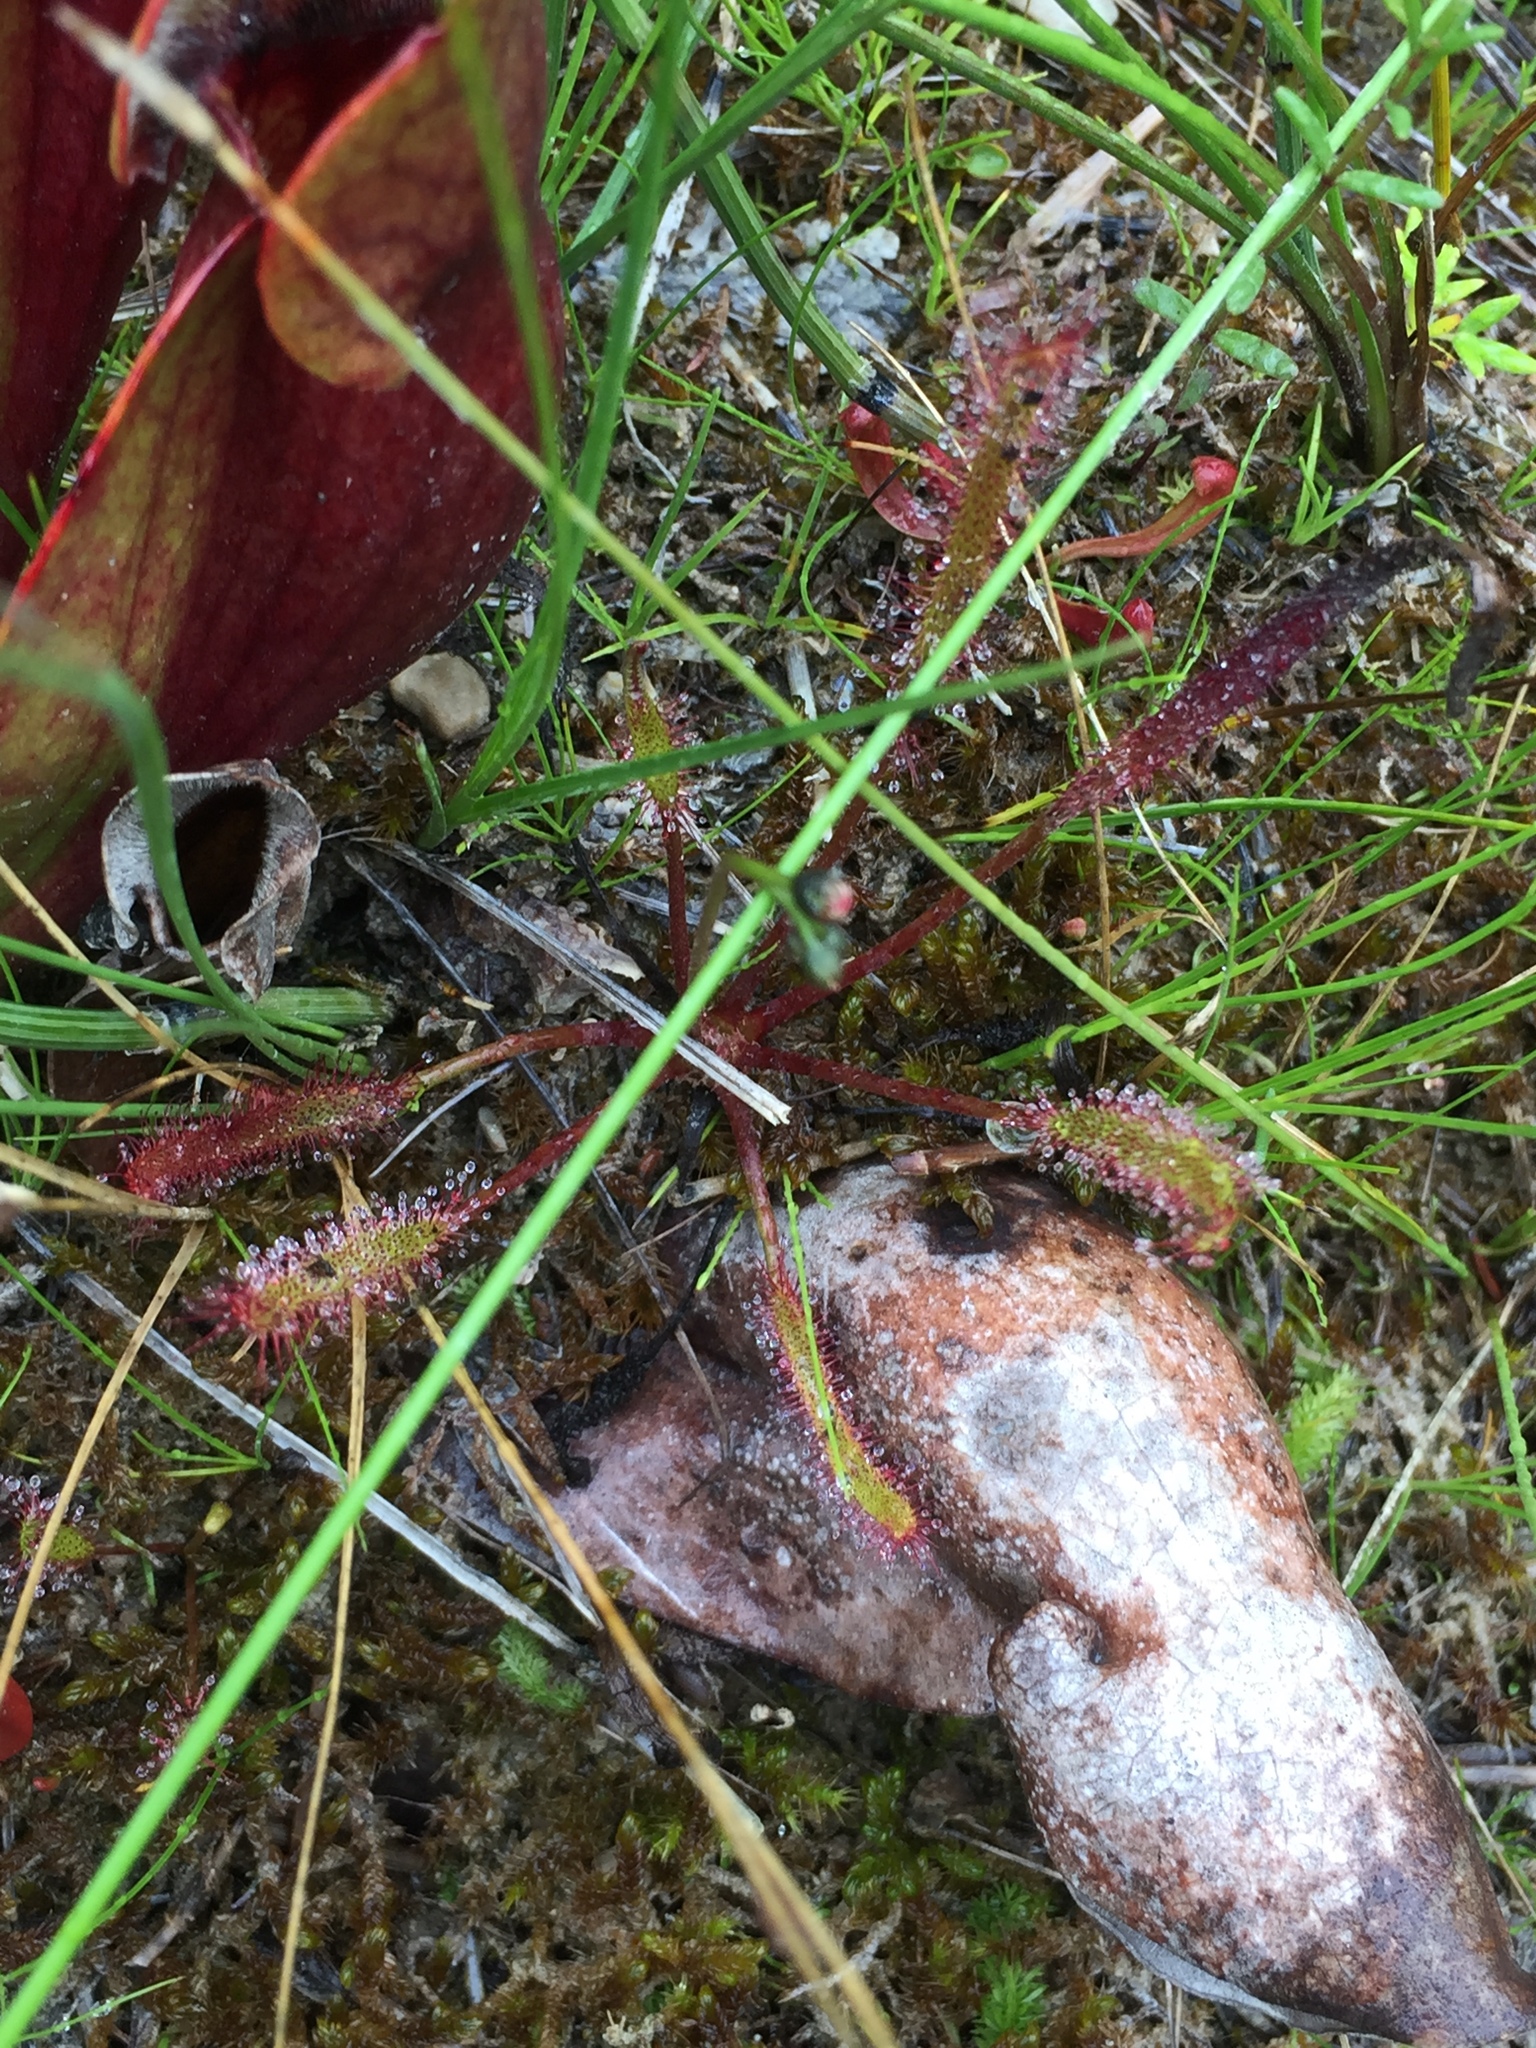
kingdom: Plantae
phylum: Tracheophyta
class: Magnoliopsida
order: Caryophyllales
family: Droseraceae
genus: Drosera
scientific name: Drosera linearis
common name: Linear-leaved sundew
